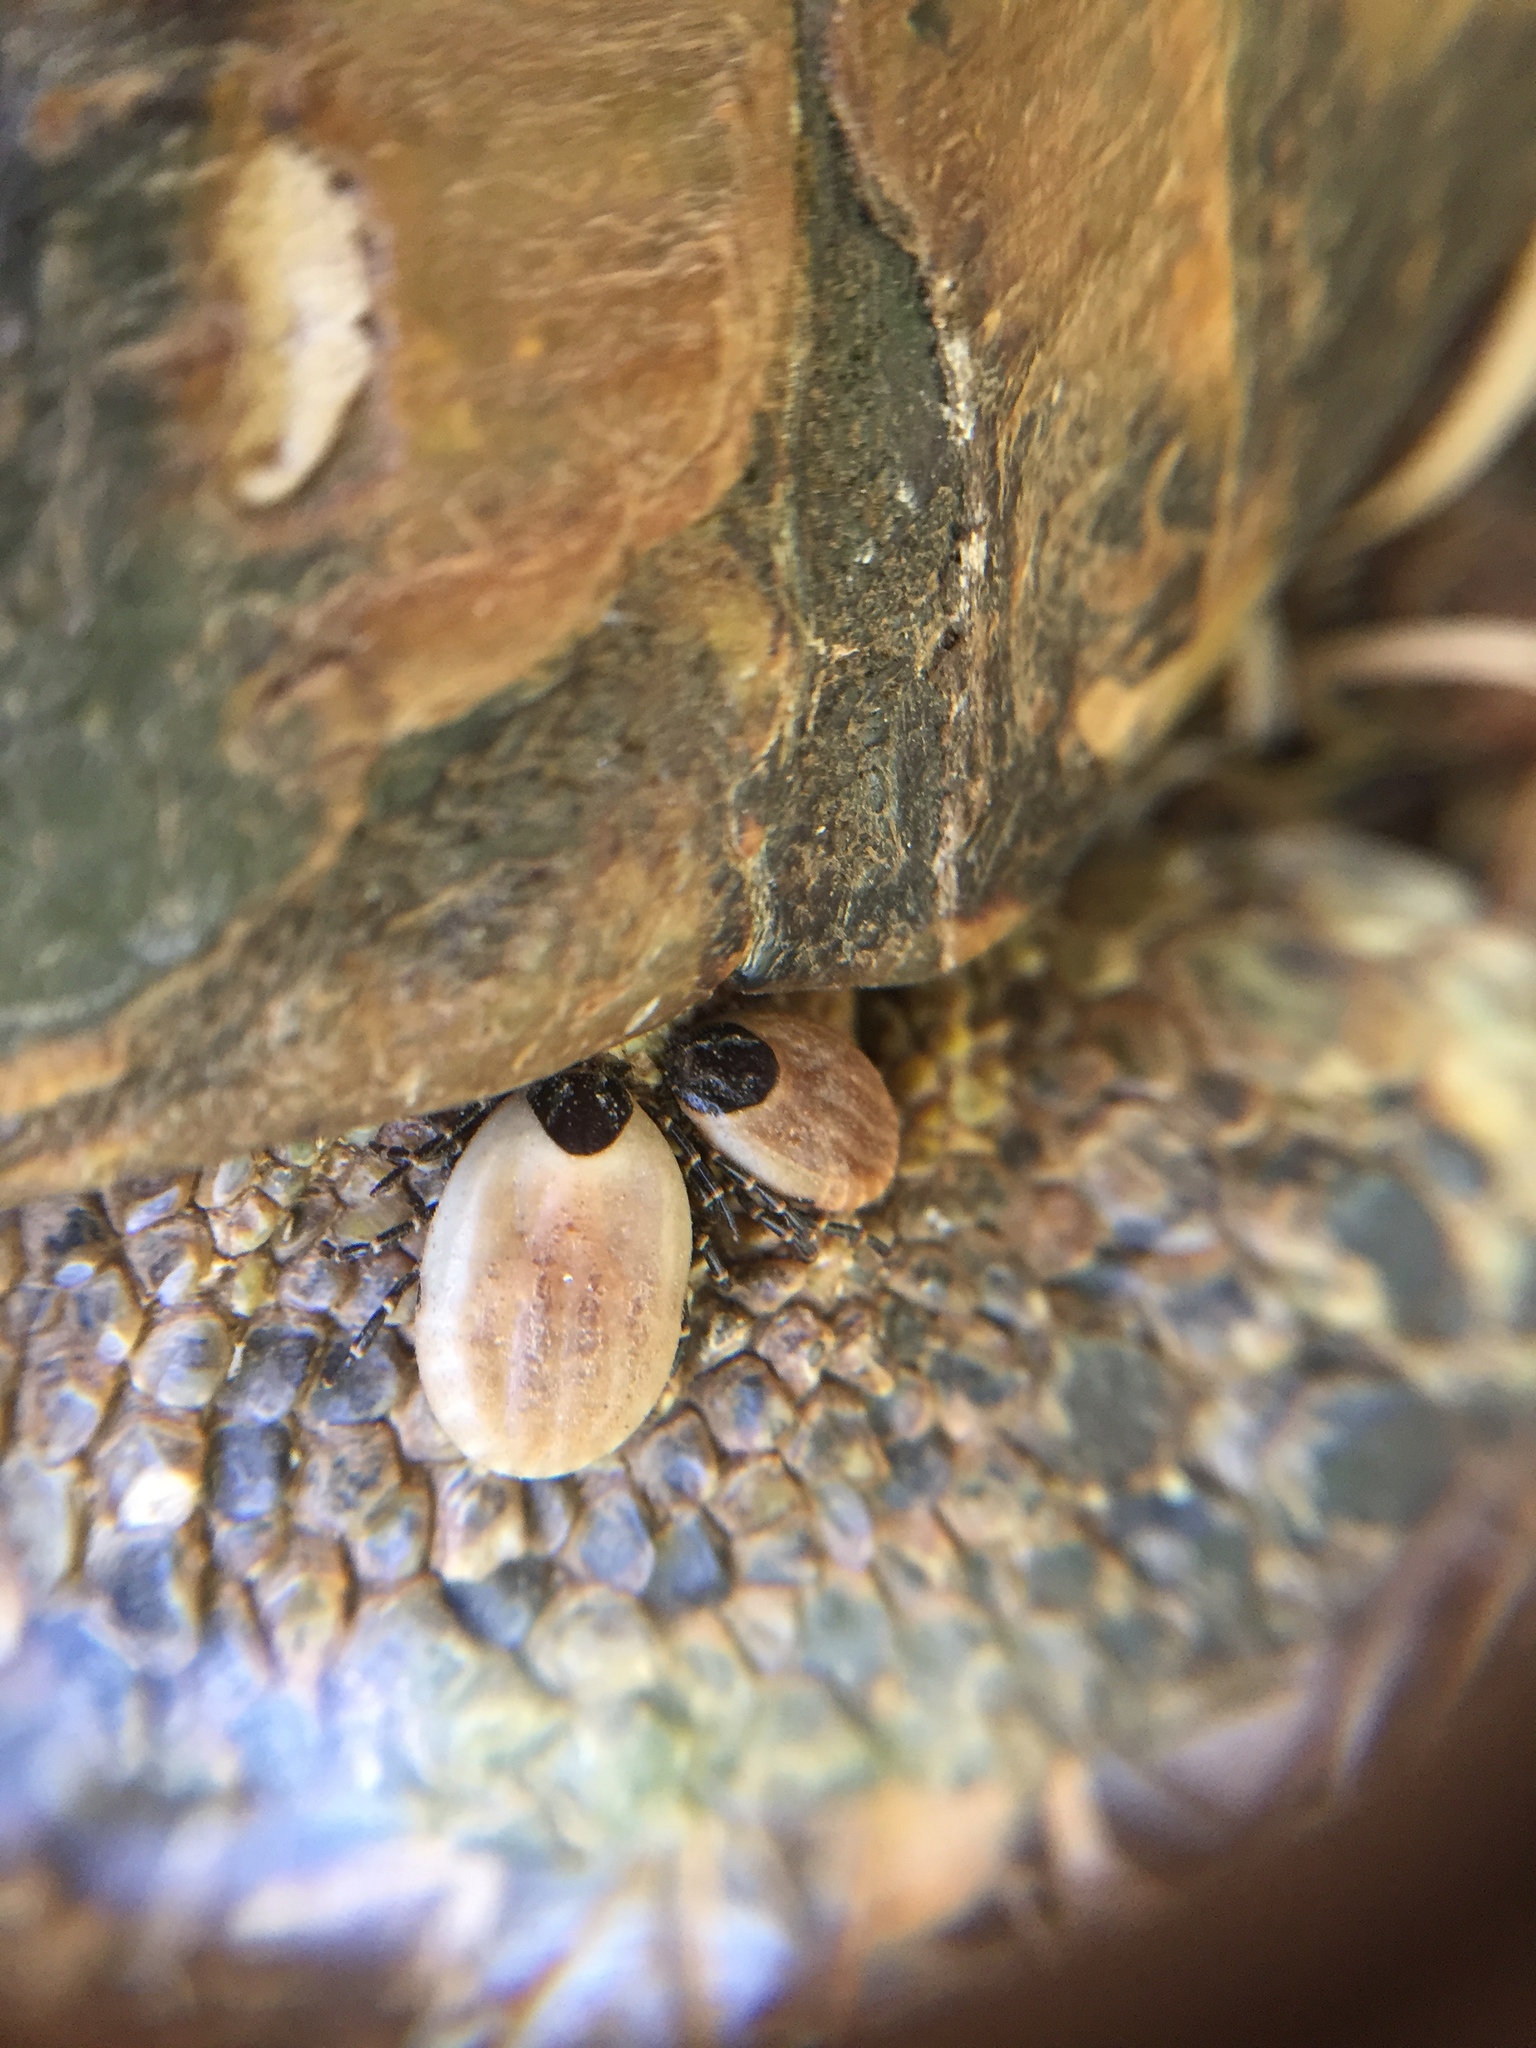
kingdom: Animalia
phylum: Arthropoda
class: Arachnida
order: Ixodida
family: Ixodidae
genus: Hyalomma
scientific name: Hyalomma aegyptium
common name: Tortoise tick
